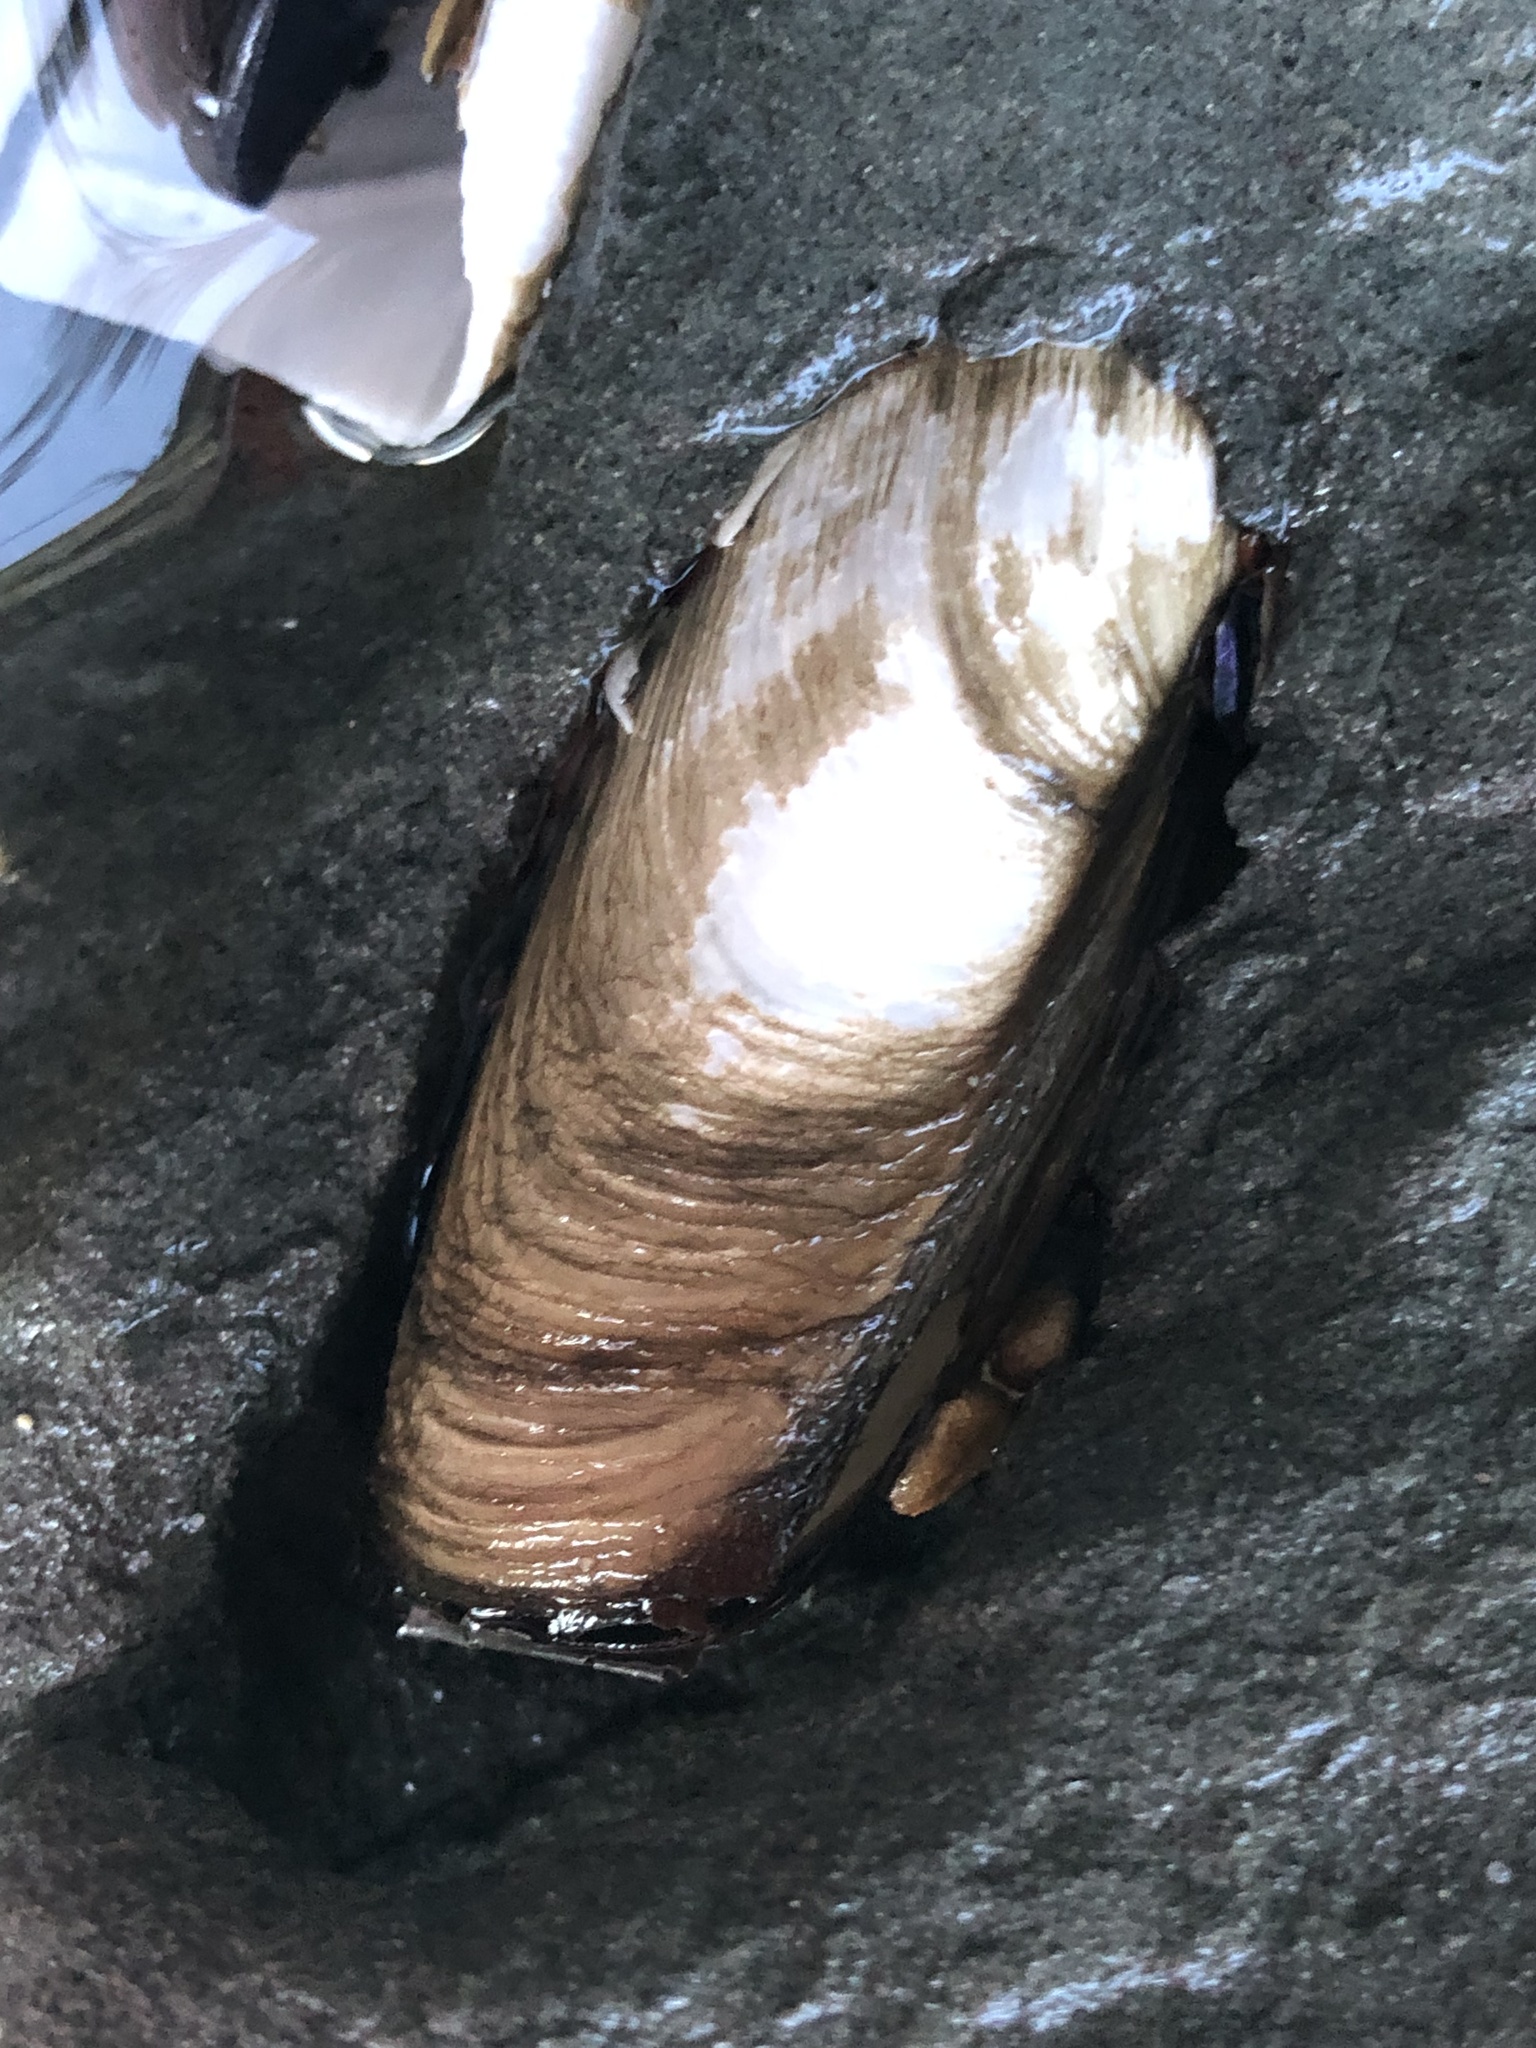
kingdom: Animalia
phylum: Mollusca
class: Bivalvia
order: Myida
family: Pholadidae
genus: Penitella
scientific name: Penitella penita
